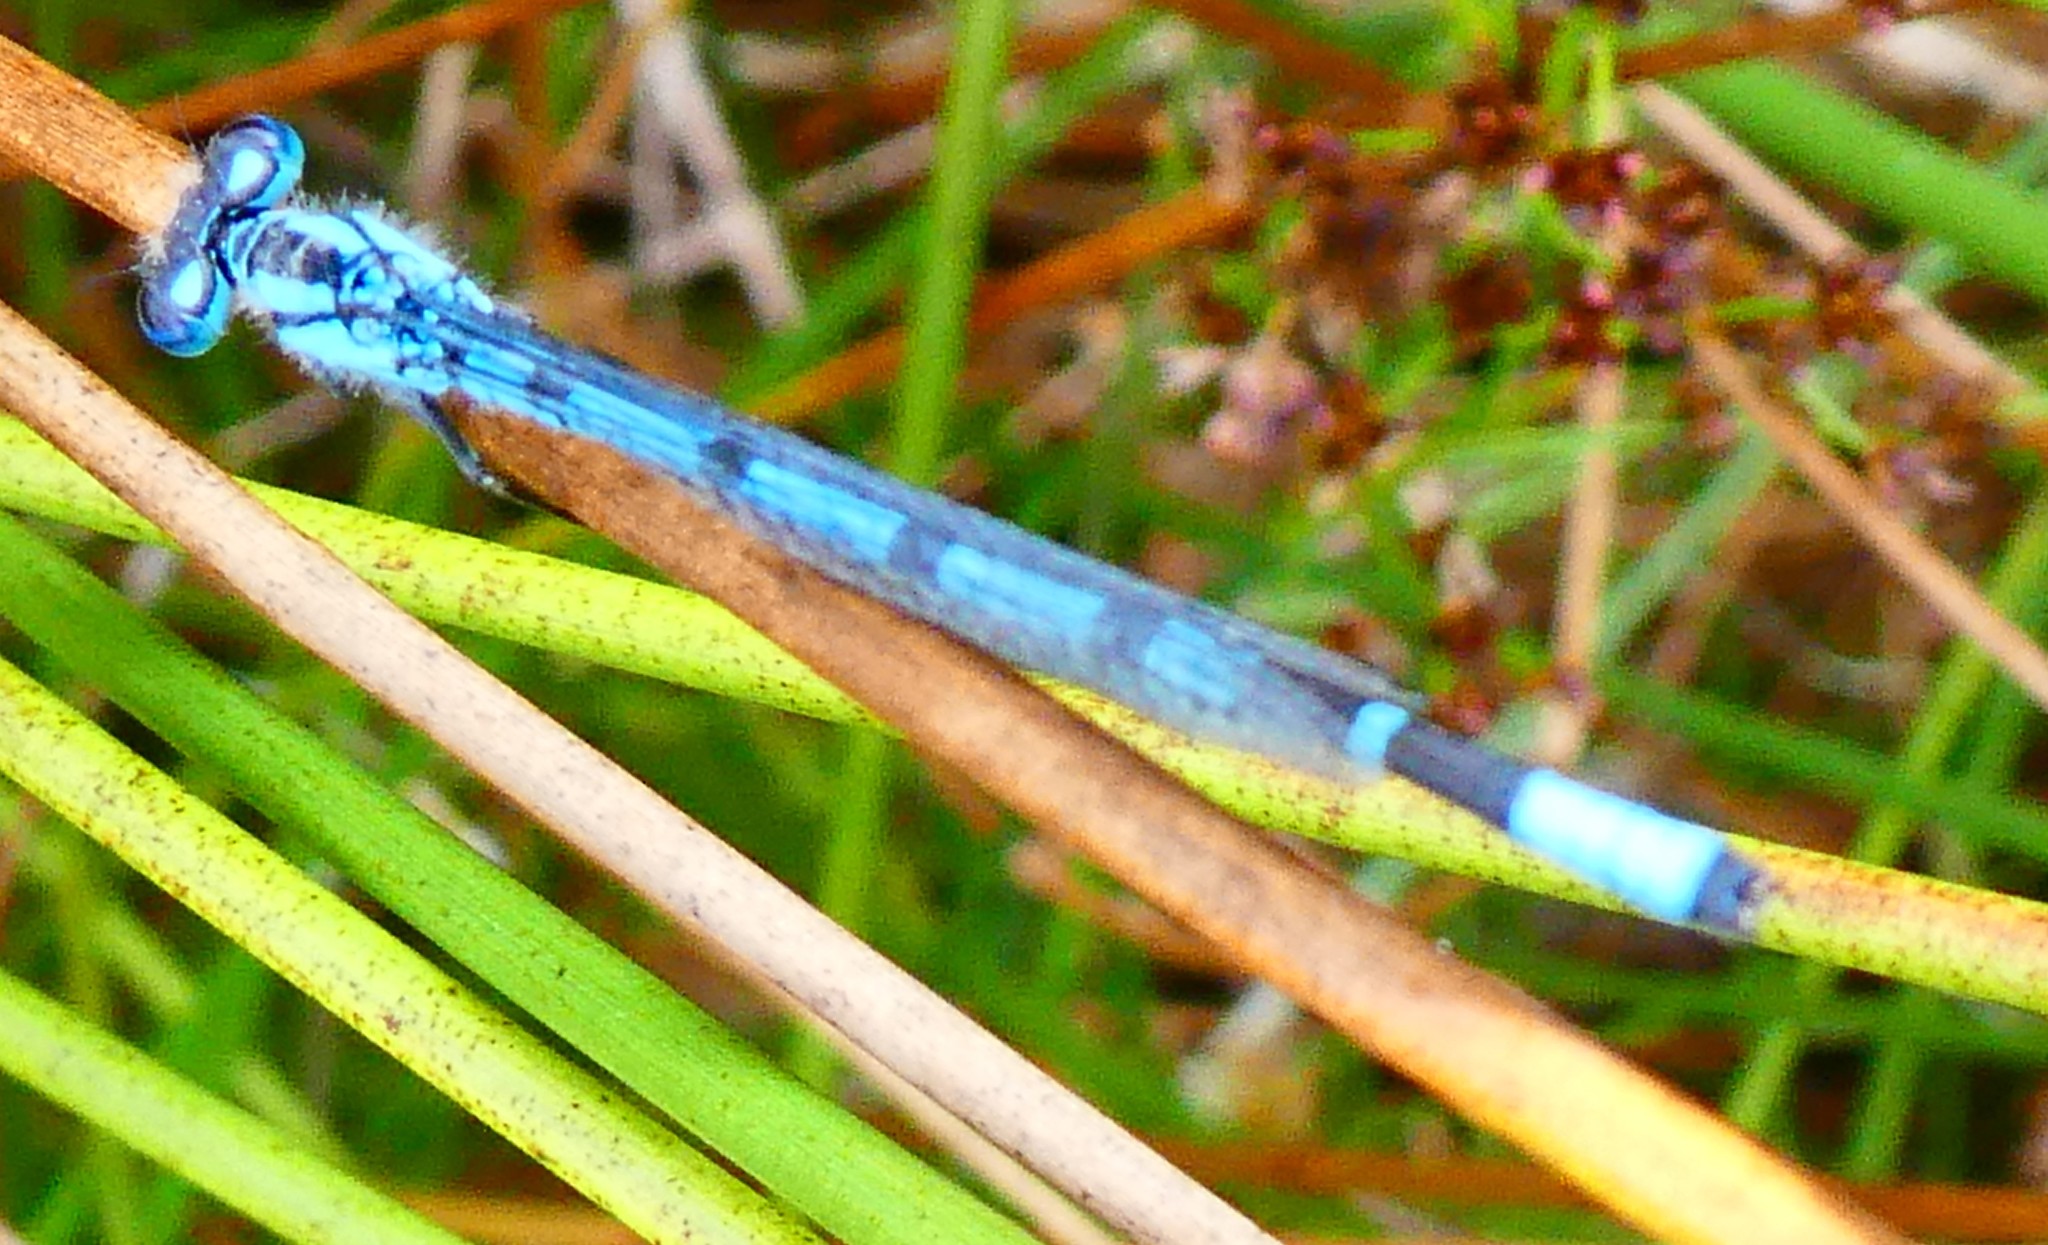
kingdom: Animalia
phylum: Arthropoda
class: Insecta
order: Odonata
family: Coenagrionidae
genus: Enallagma
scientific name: Enallagma cyathigerum
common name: Common blue damselfly
